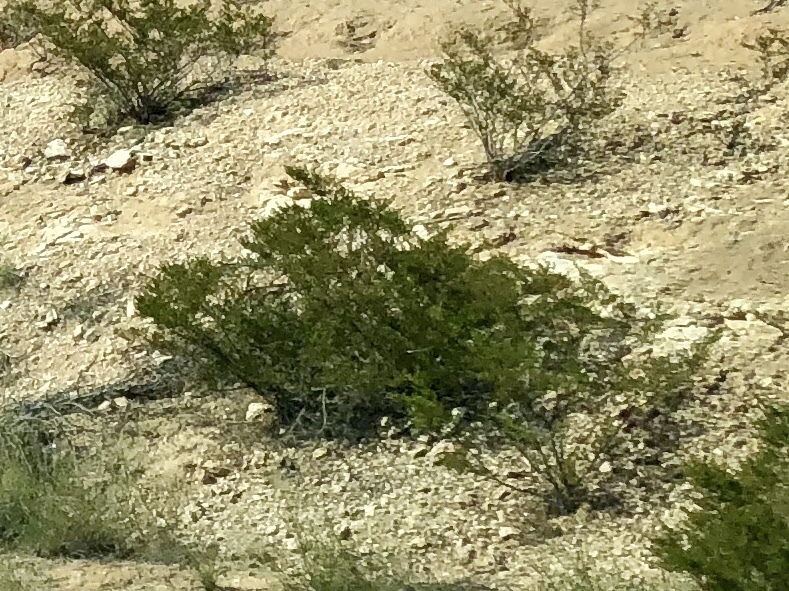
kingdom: Plantae
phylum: Tracheophyta
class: Magnoliopsida
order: Zygophyllales
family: Zygophyllaceae
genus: Larrea
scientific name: Larrea tridentata
